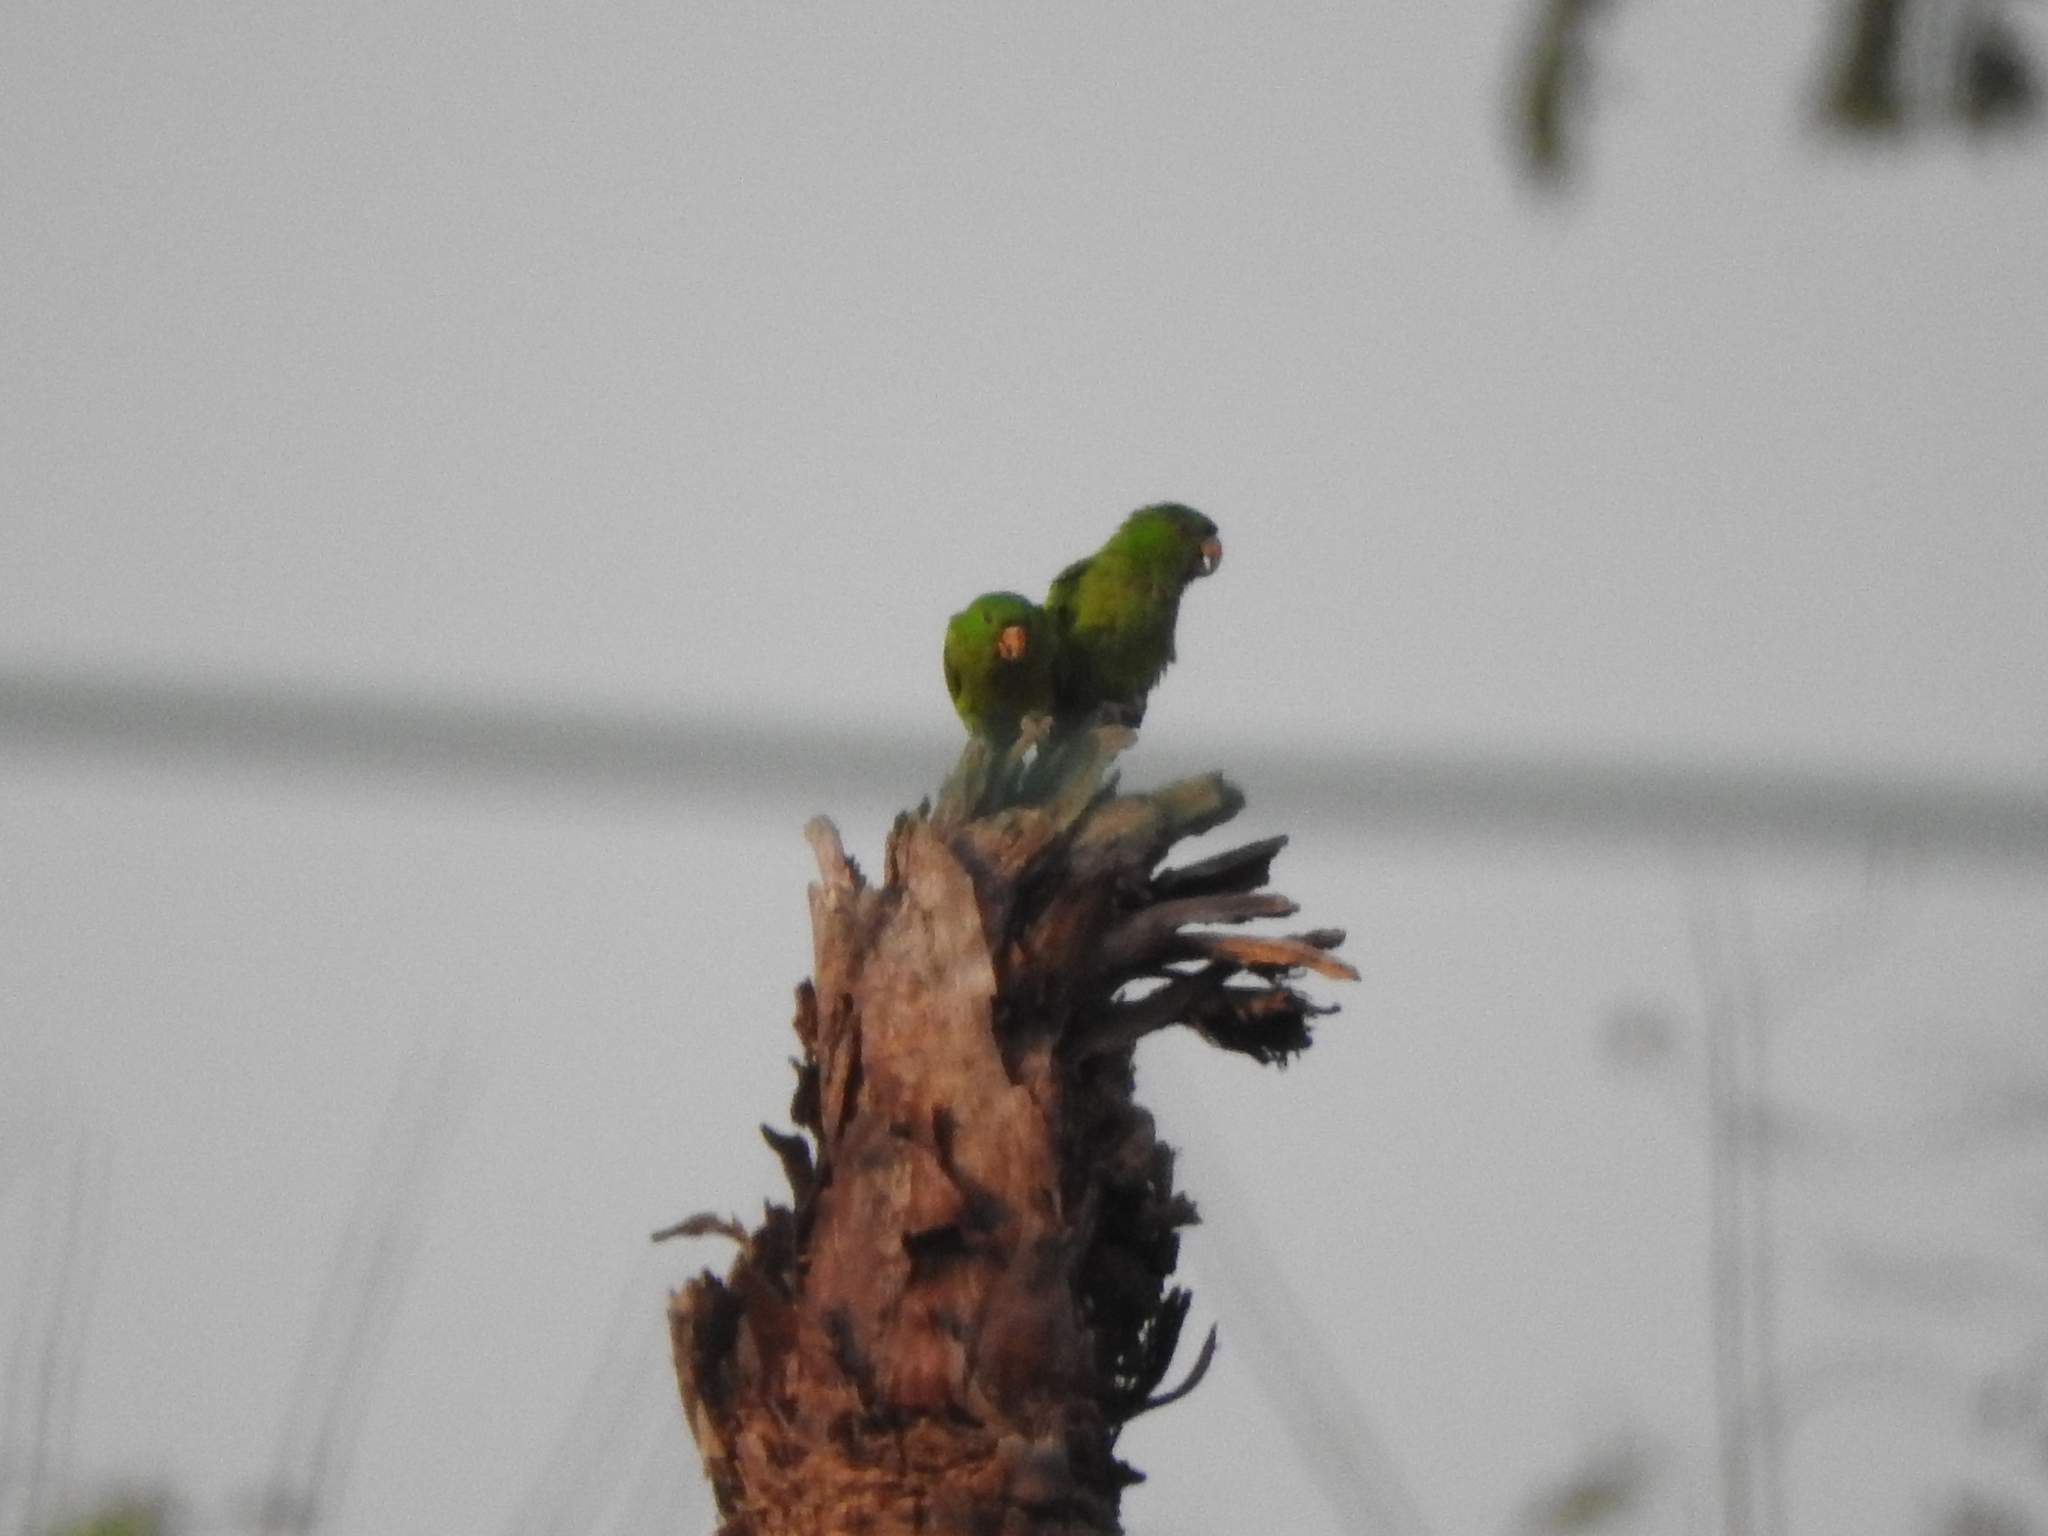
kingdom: Animalia
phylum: Chordata
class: Aves
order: Psittaciformes
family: Psittacidae
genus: Aratinga
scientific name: Aratinga holochlora
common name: Green parakeet
